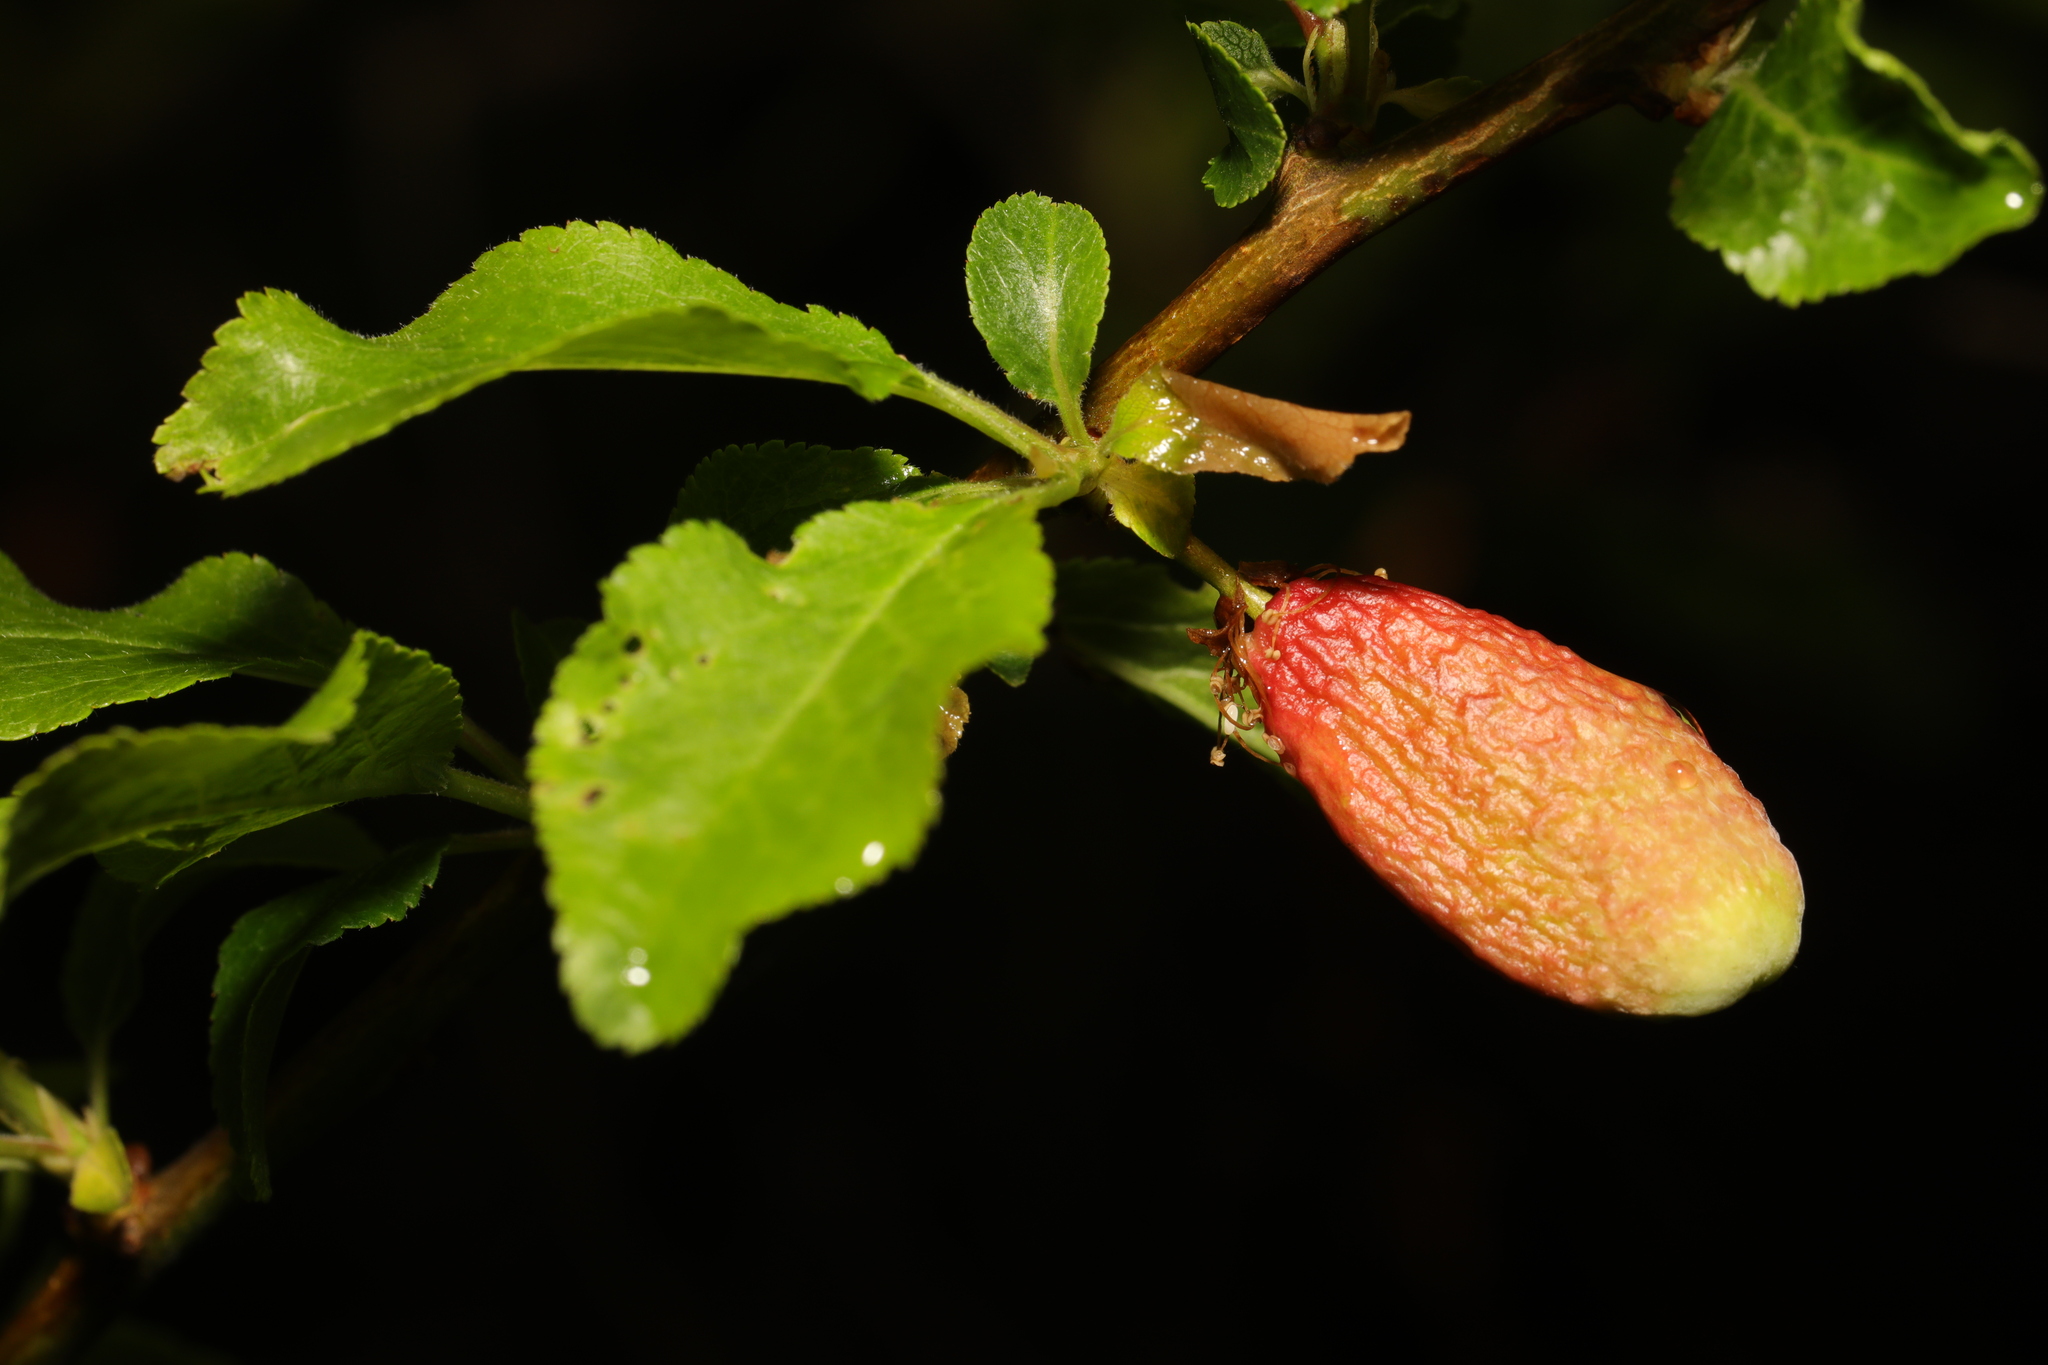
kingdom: Fungi
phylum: Ascomycota
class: Taphrinomycetes
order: Taphrinales
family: Taphrinaceae
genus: Taphrina
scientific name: Taphrina pruni
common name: Pocket plum
